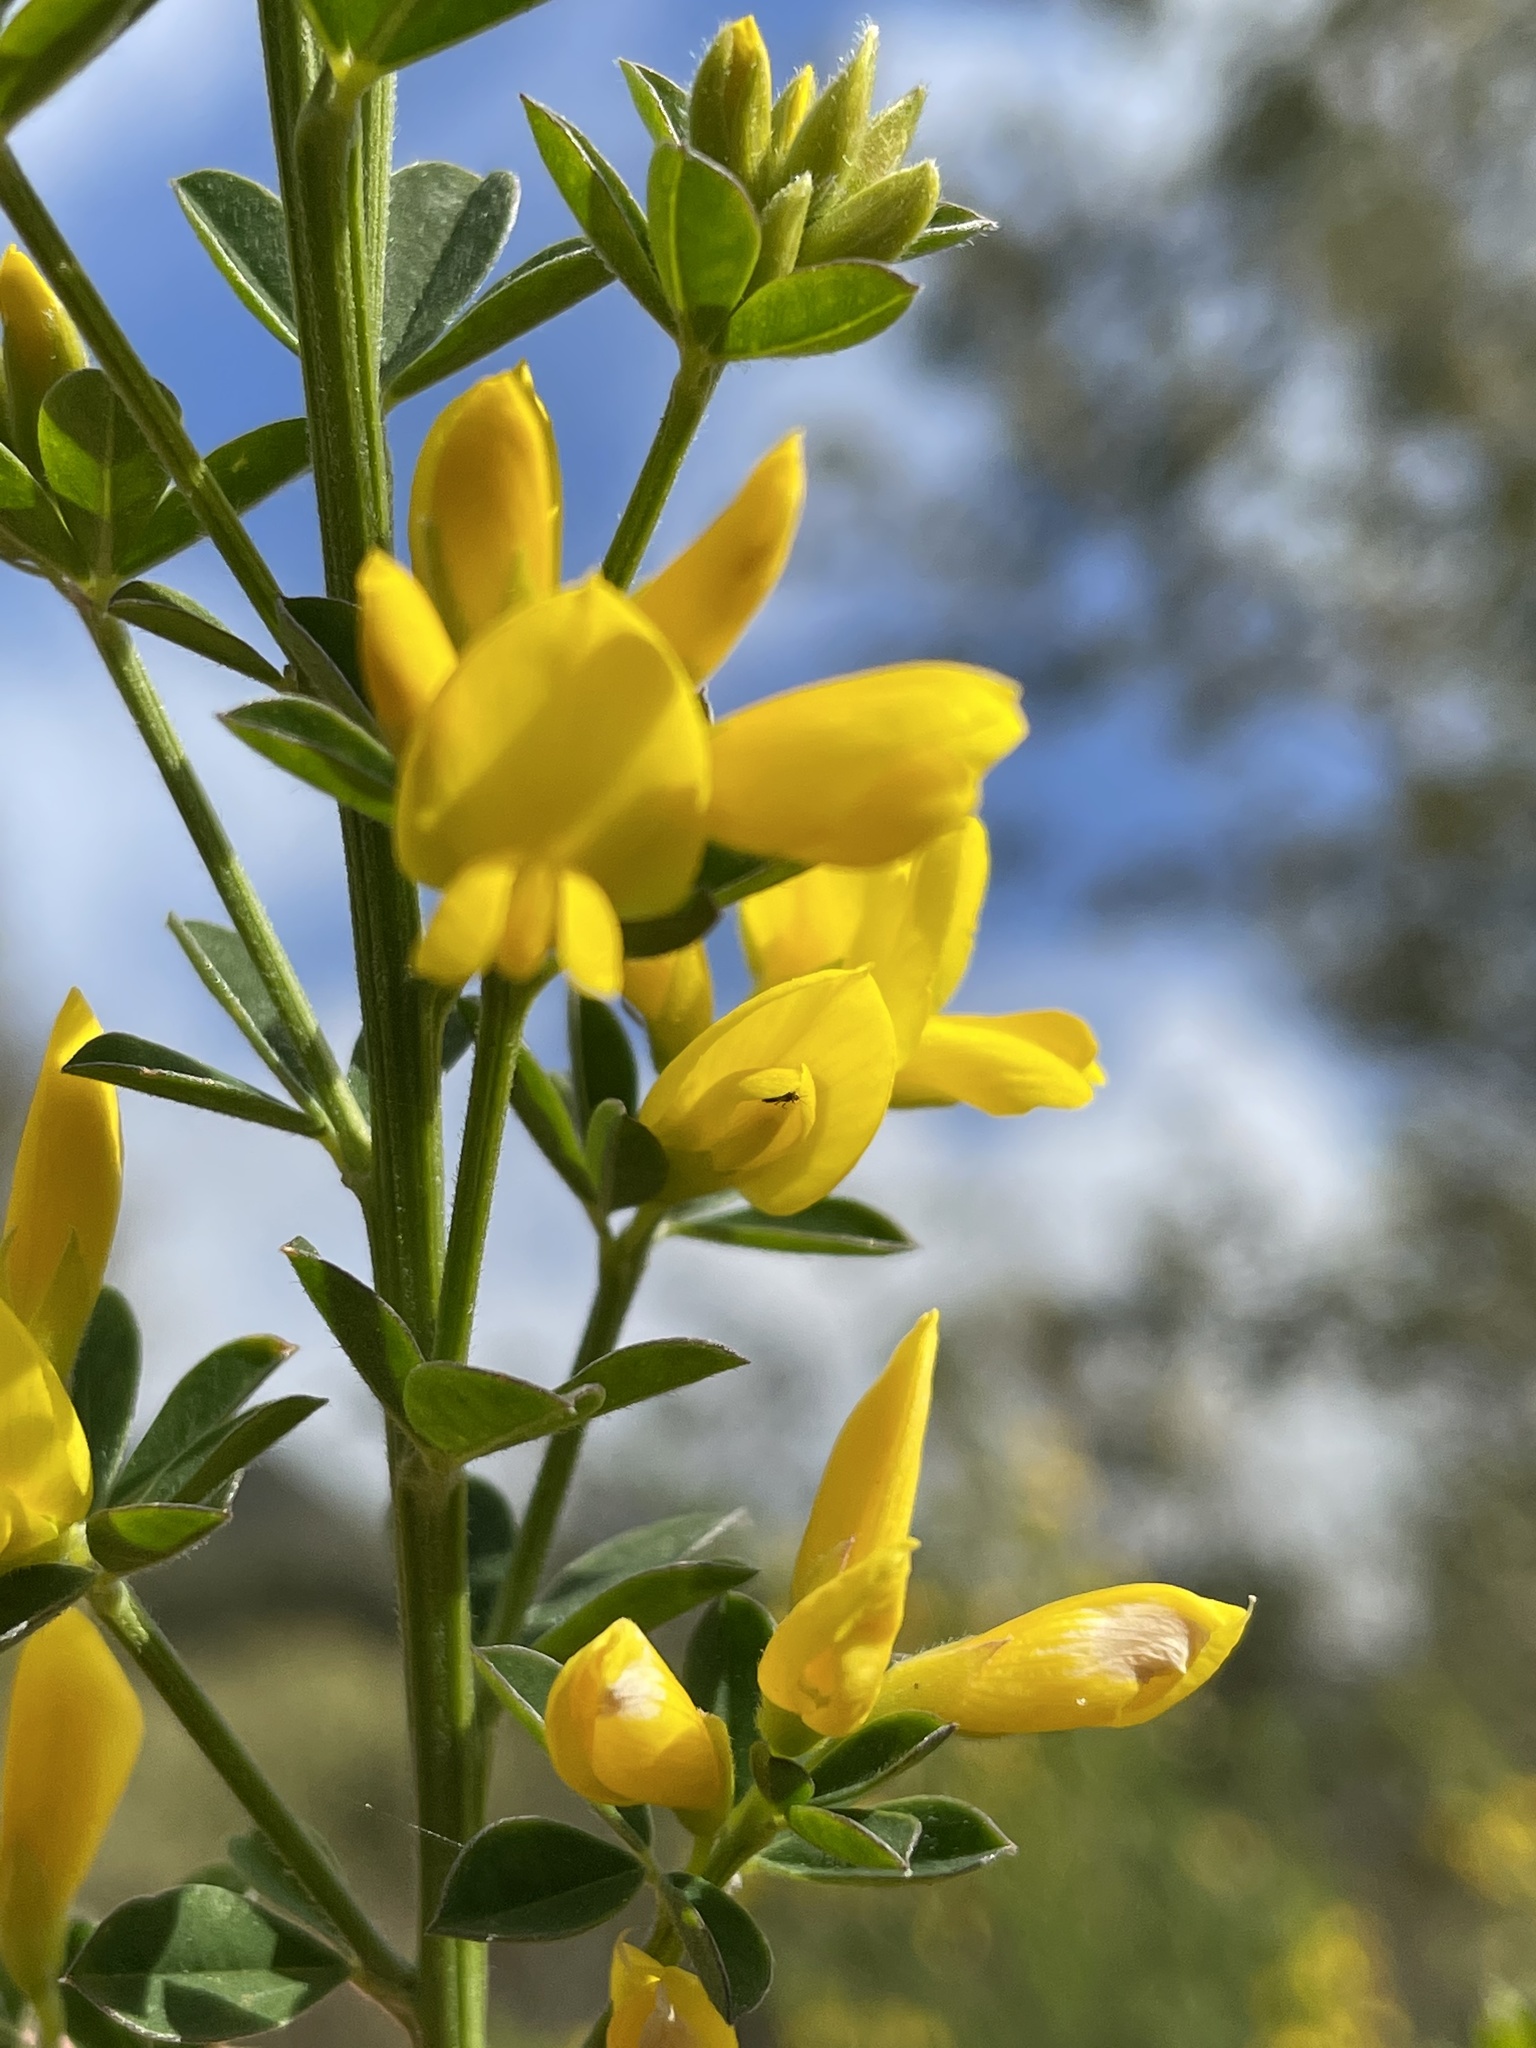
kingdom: Plantae
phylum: Tracheophyta
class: Magnoliopsida
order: Fabales
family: Fabaceae
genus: Genista
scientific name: Genista monspessulana
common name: Montpellier broom
